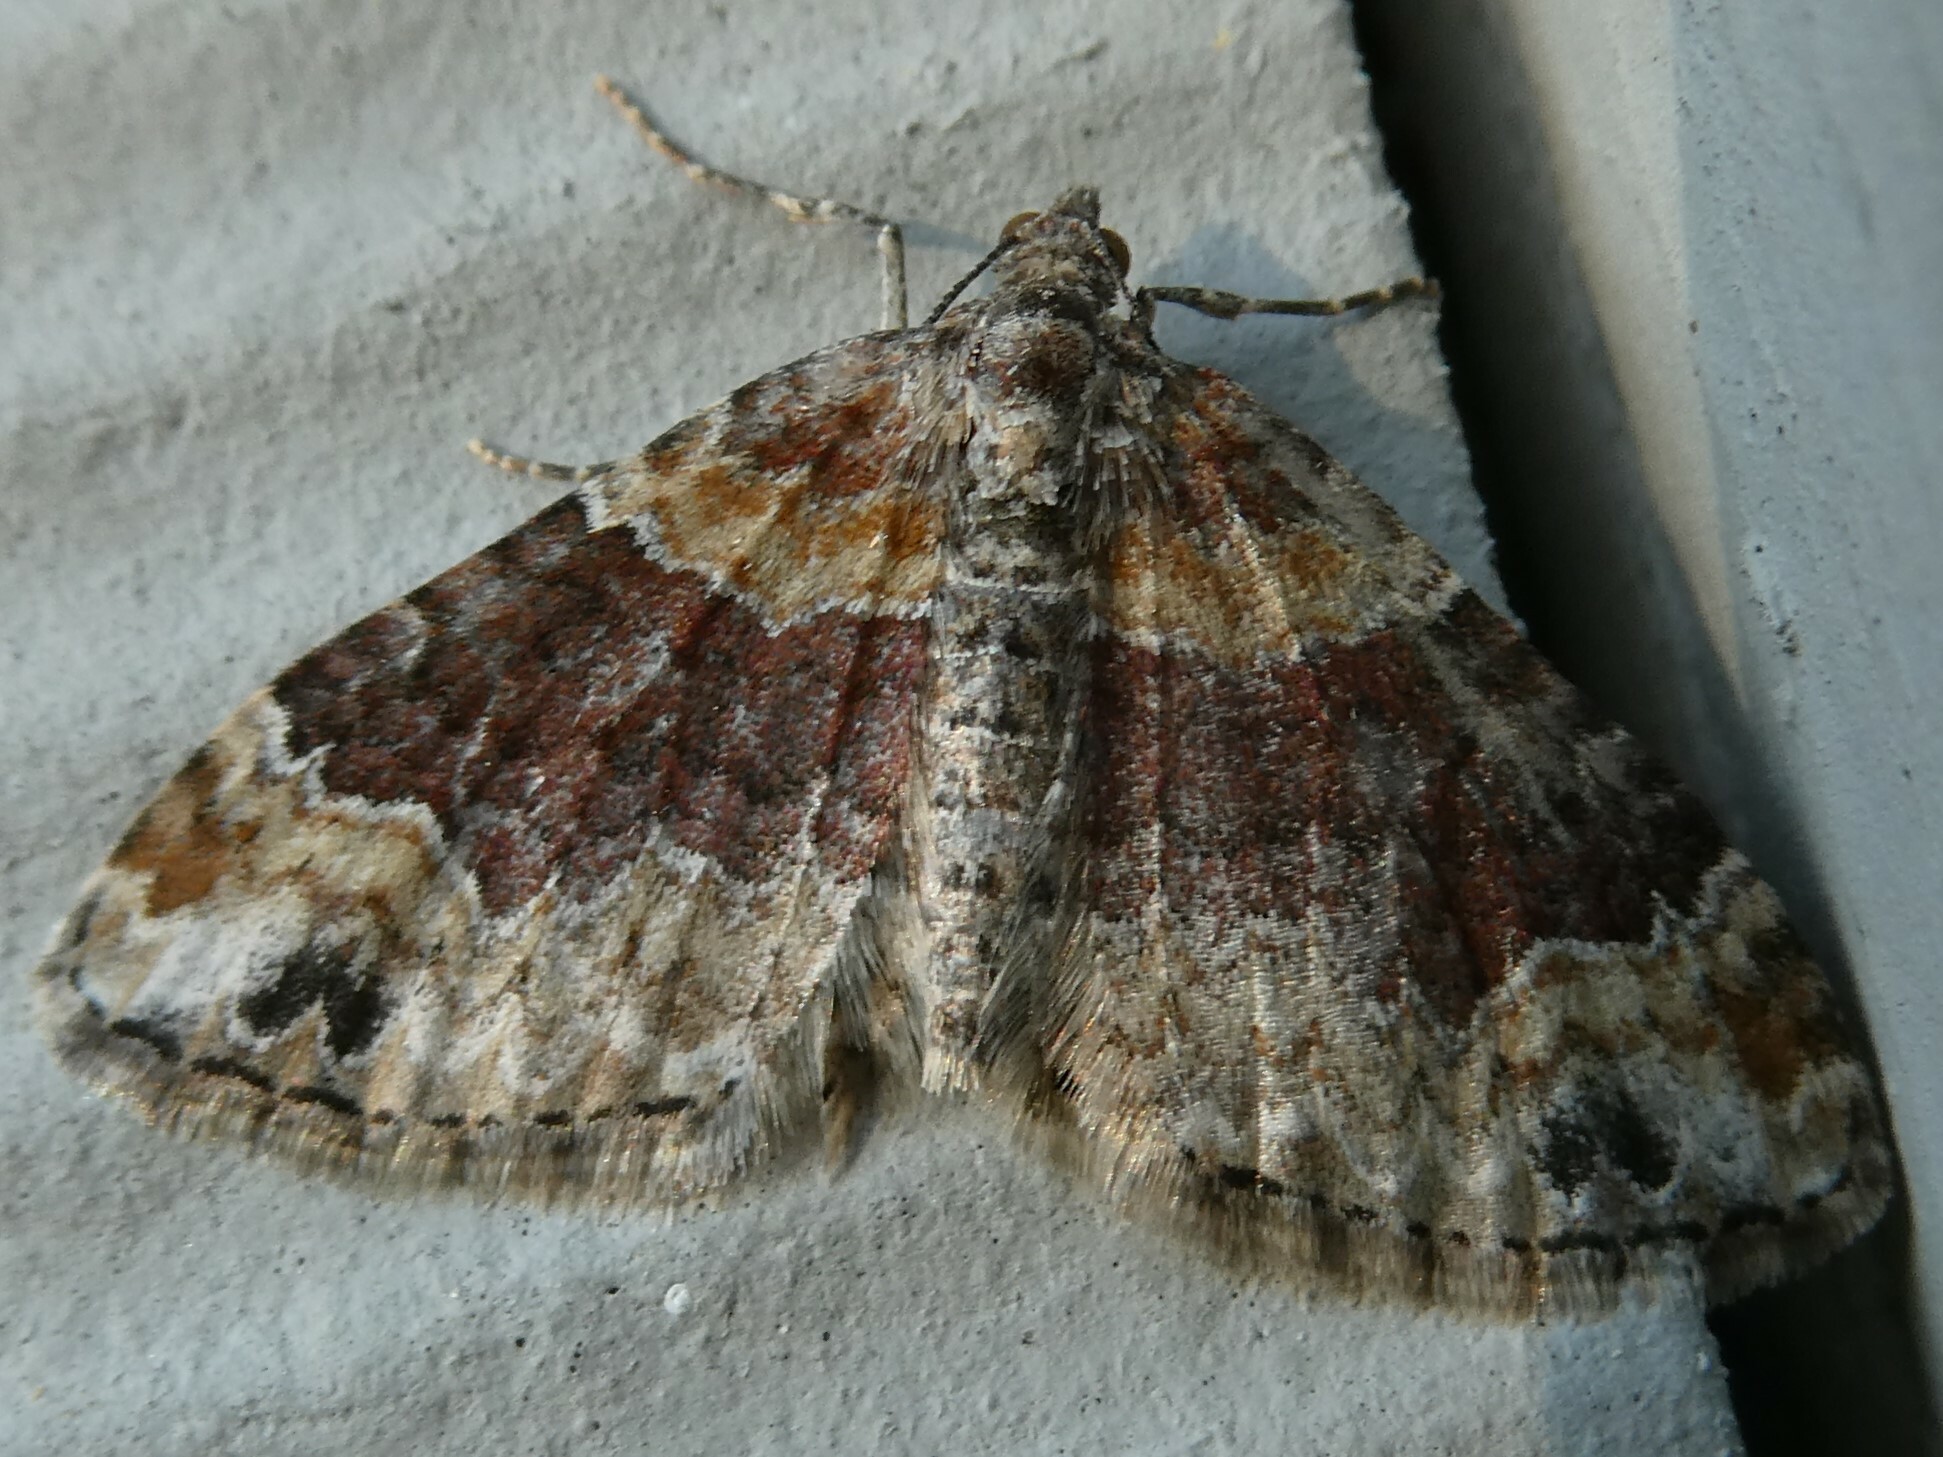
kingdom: Animalia
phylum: Arthropoda
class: Insecta
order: Lepidoptera
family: Geometridae
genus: Xanthorhoe
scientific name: Xanthorhoe ferrugata
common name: Dark-barred twin-spot carpet
